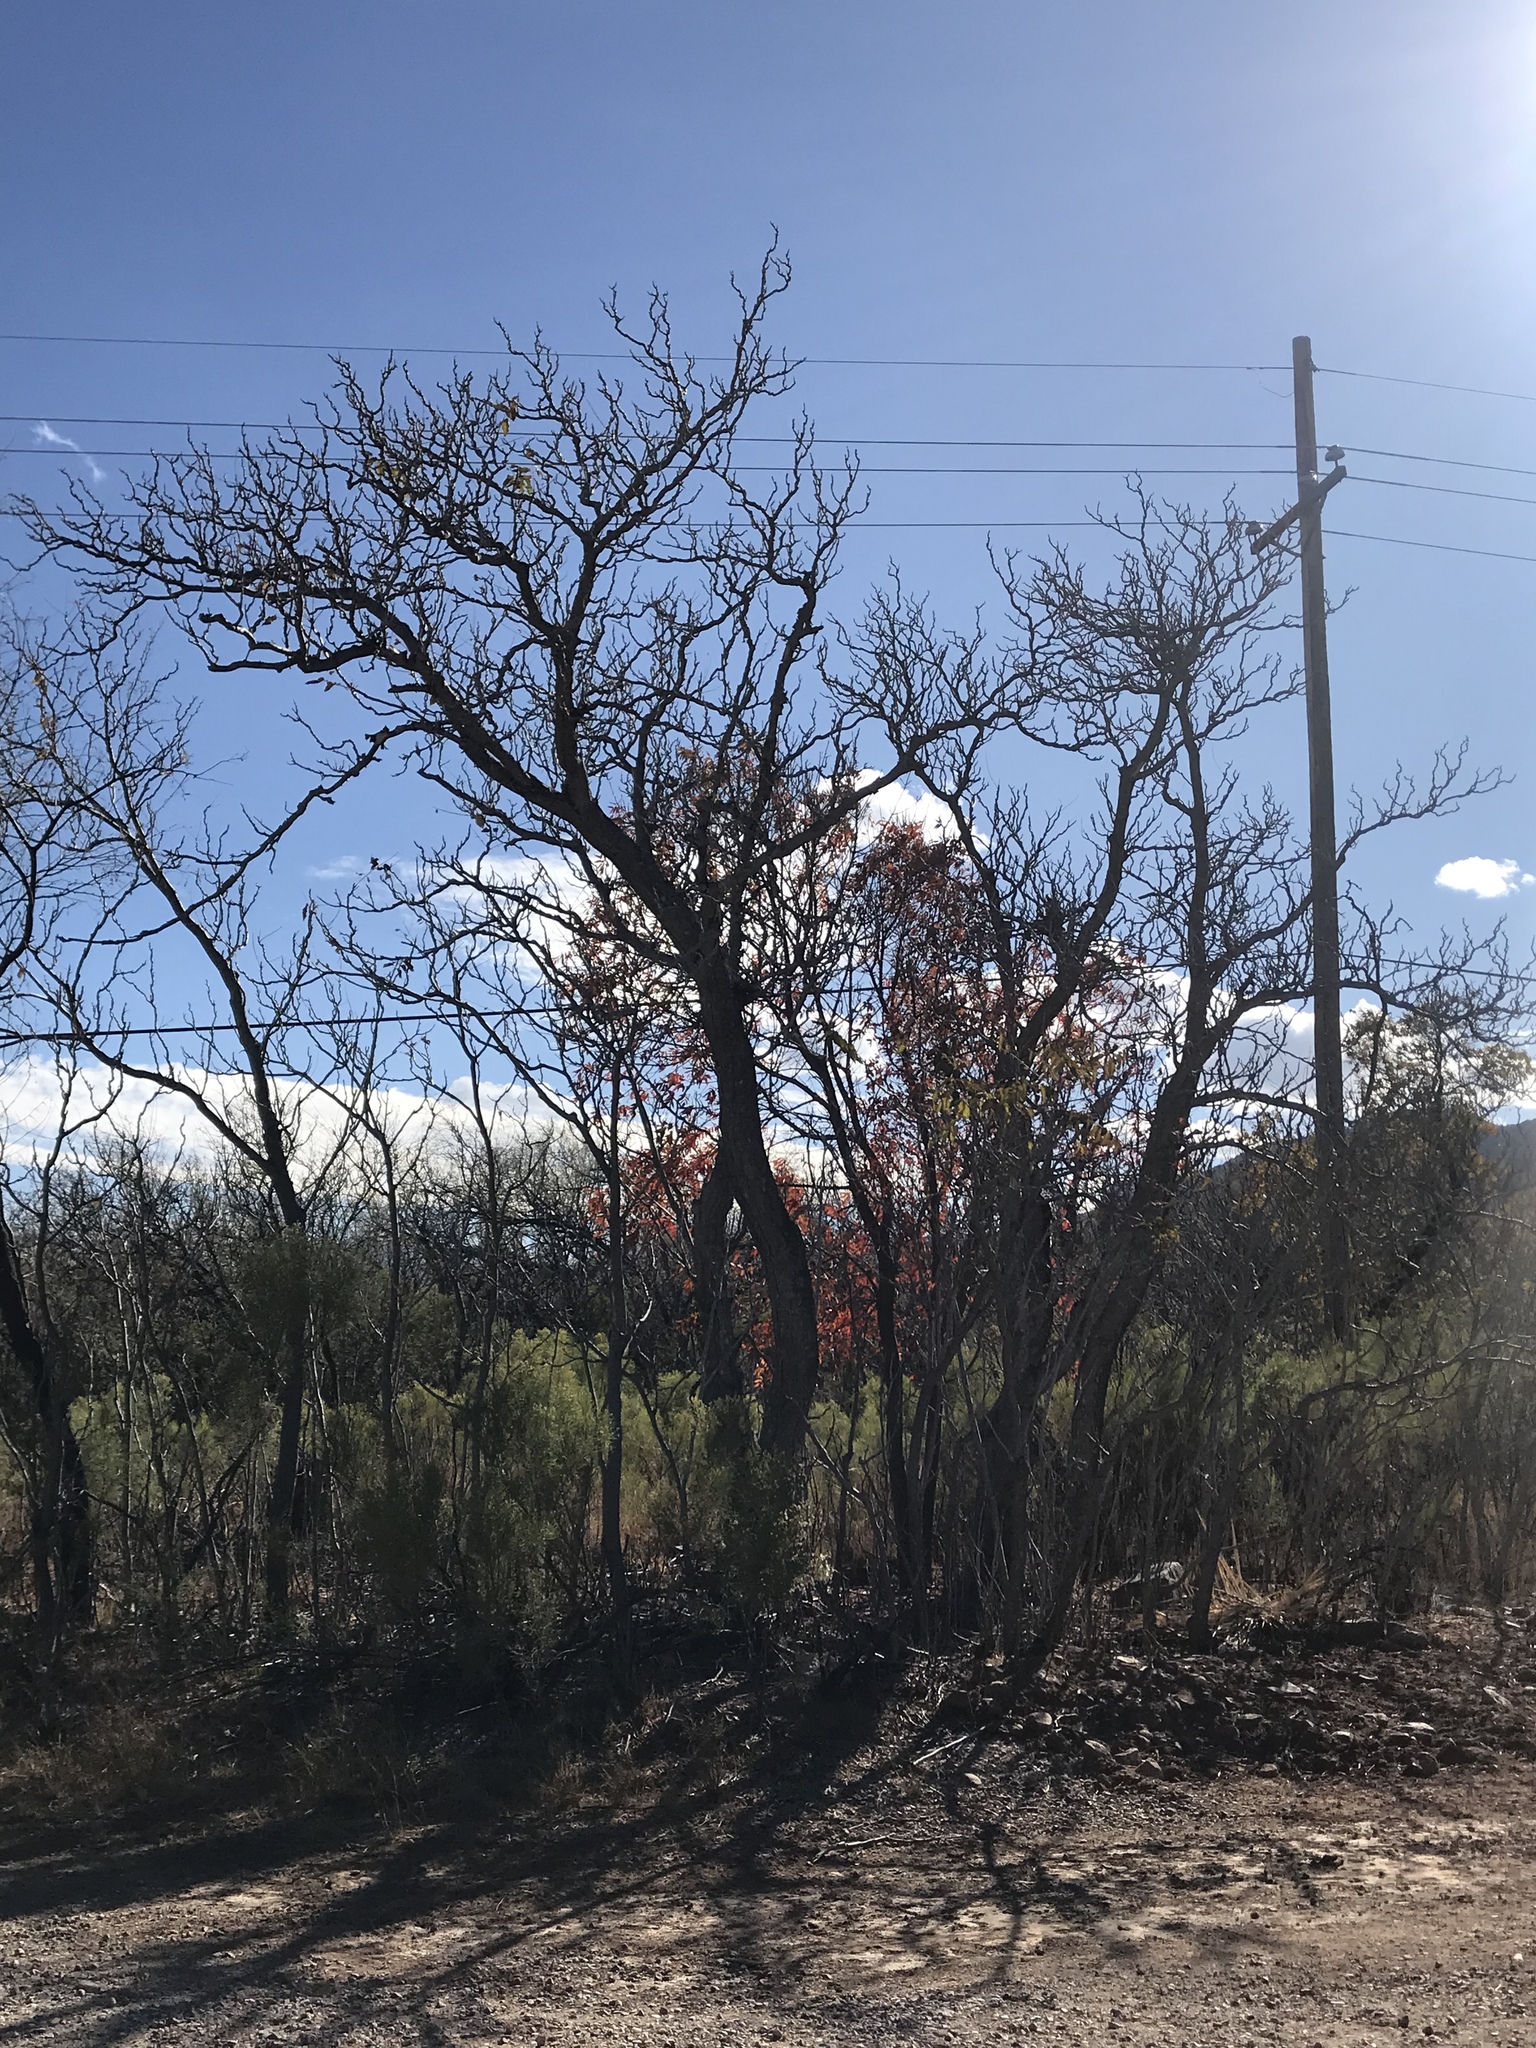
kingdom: Plantae
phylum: Tracheophyta
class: Magnoliopsida
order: Fagales
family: Juglandaceae
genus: Juglans
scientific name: Juglans major
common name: Arizona walnut
